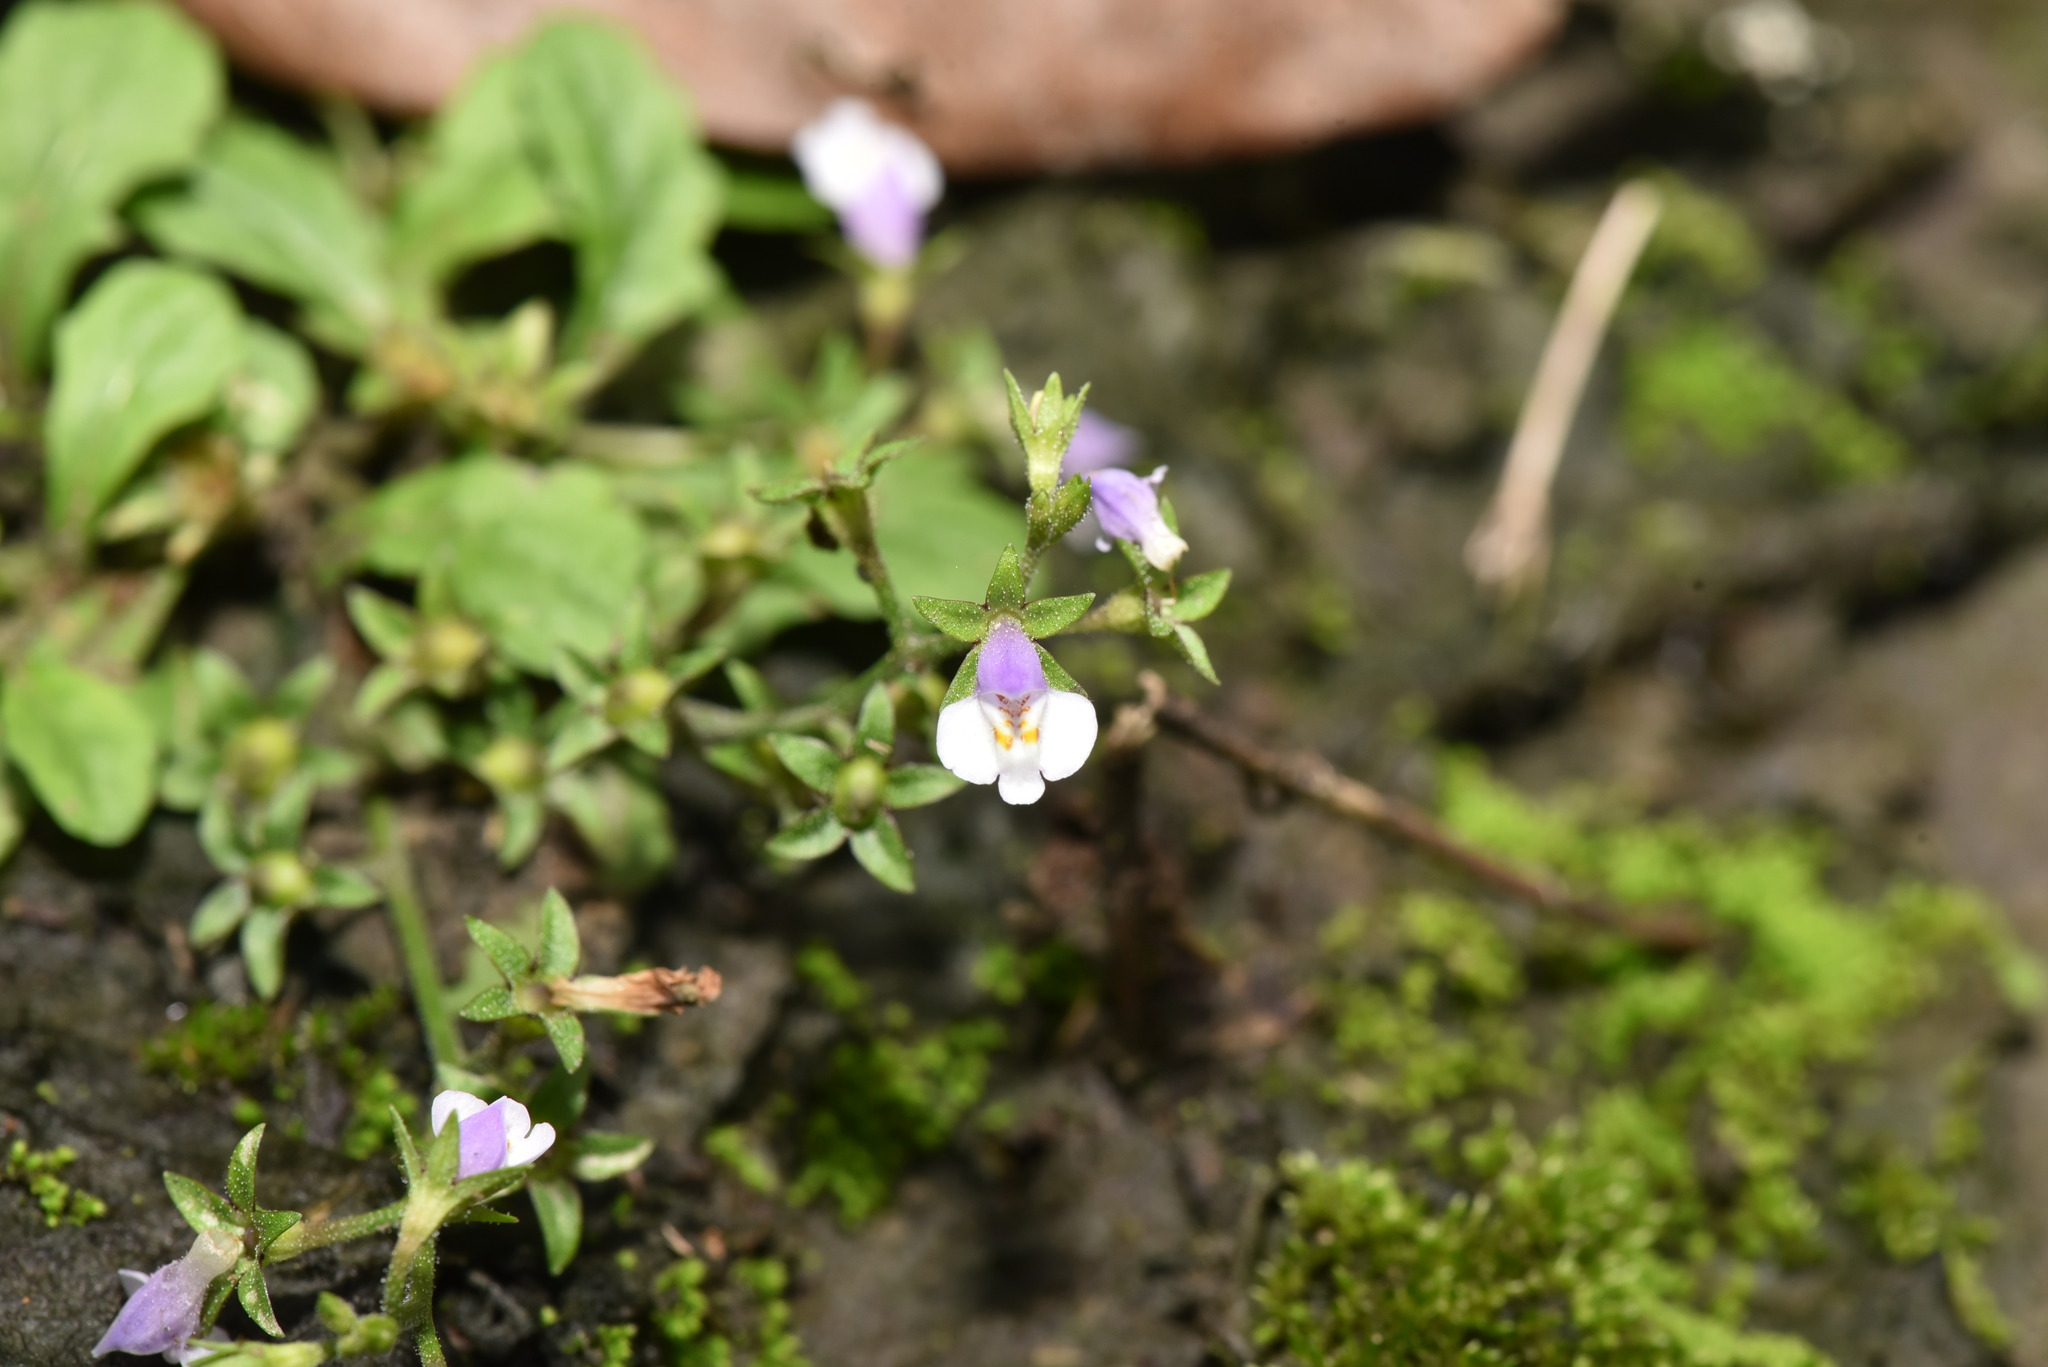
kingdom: Plantae
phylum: Tracheophyta
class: Magnoliopsida
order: Lamiales
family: Mazaceae
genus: Mazus
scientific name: Mazus pumilus
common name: Japanese mazus
